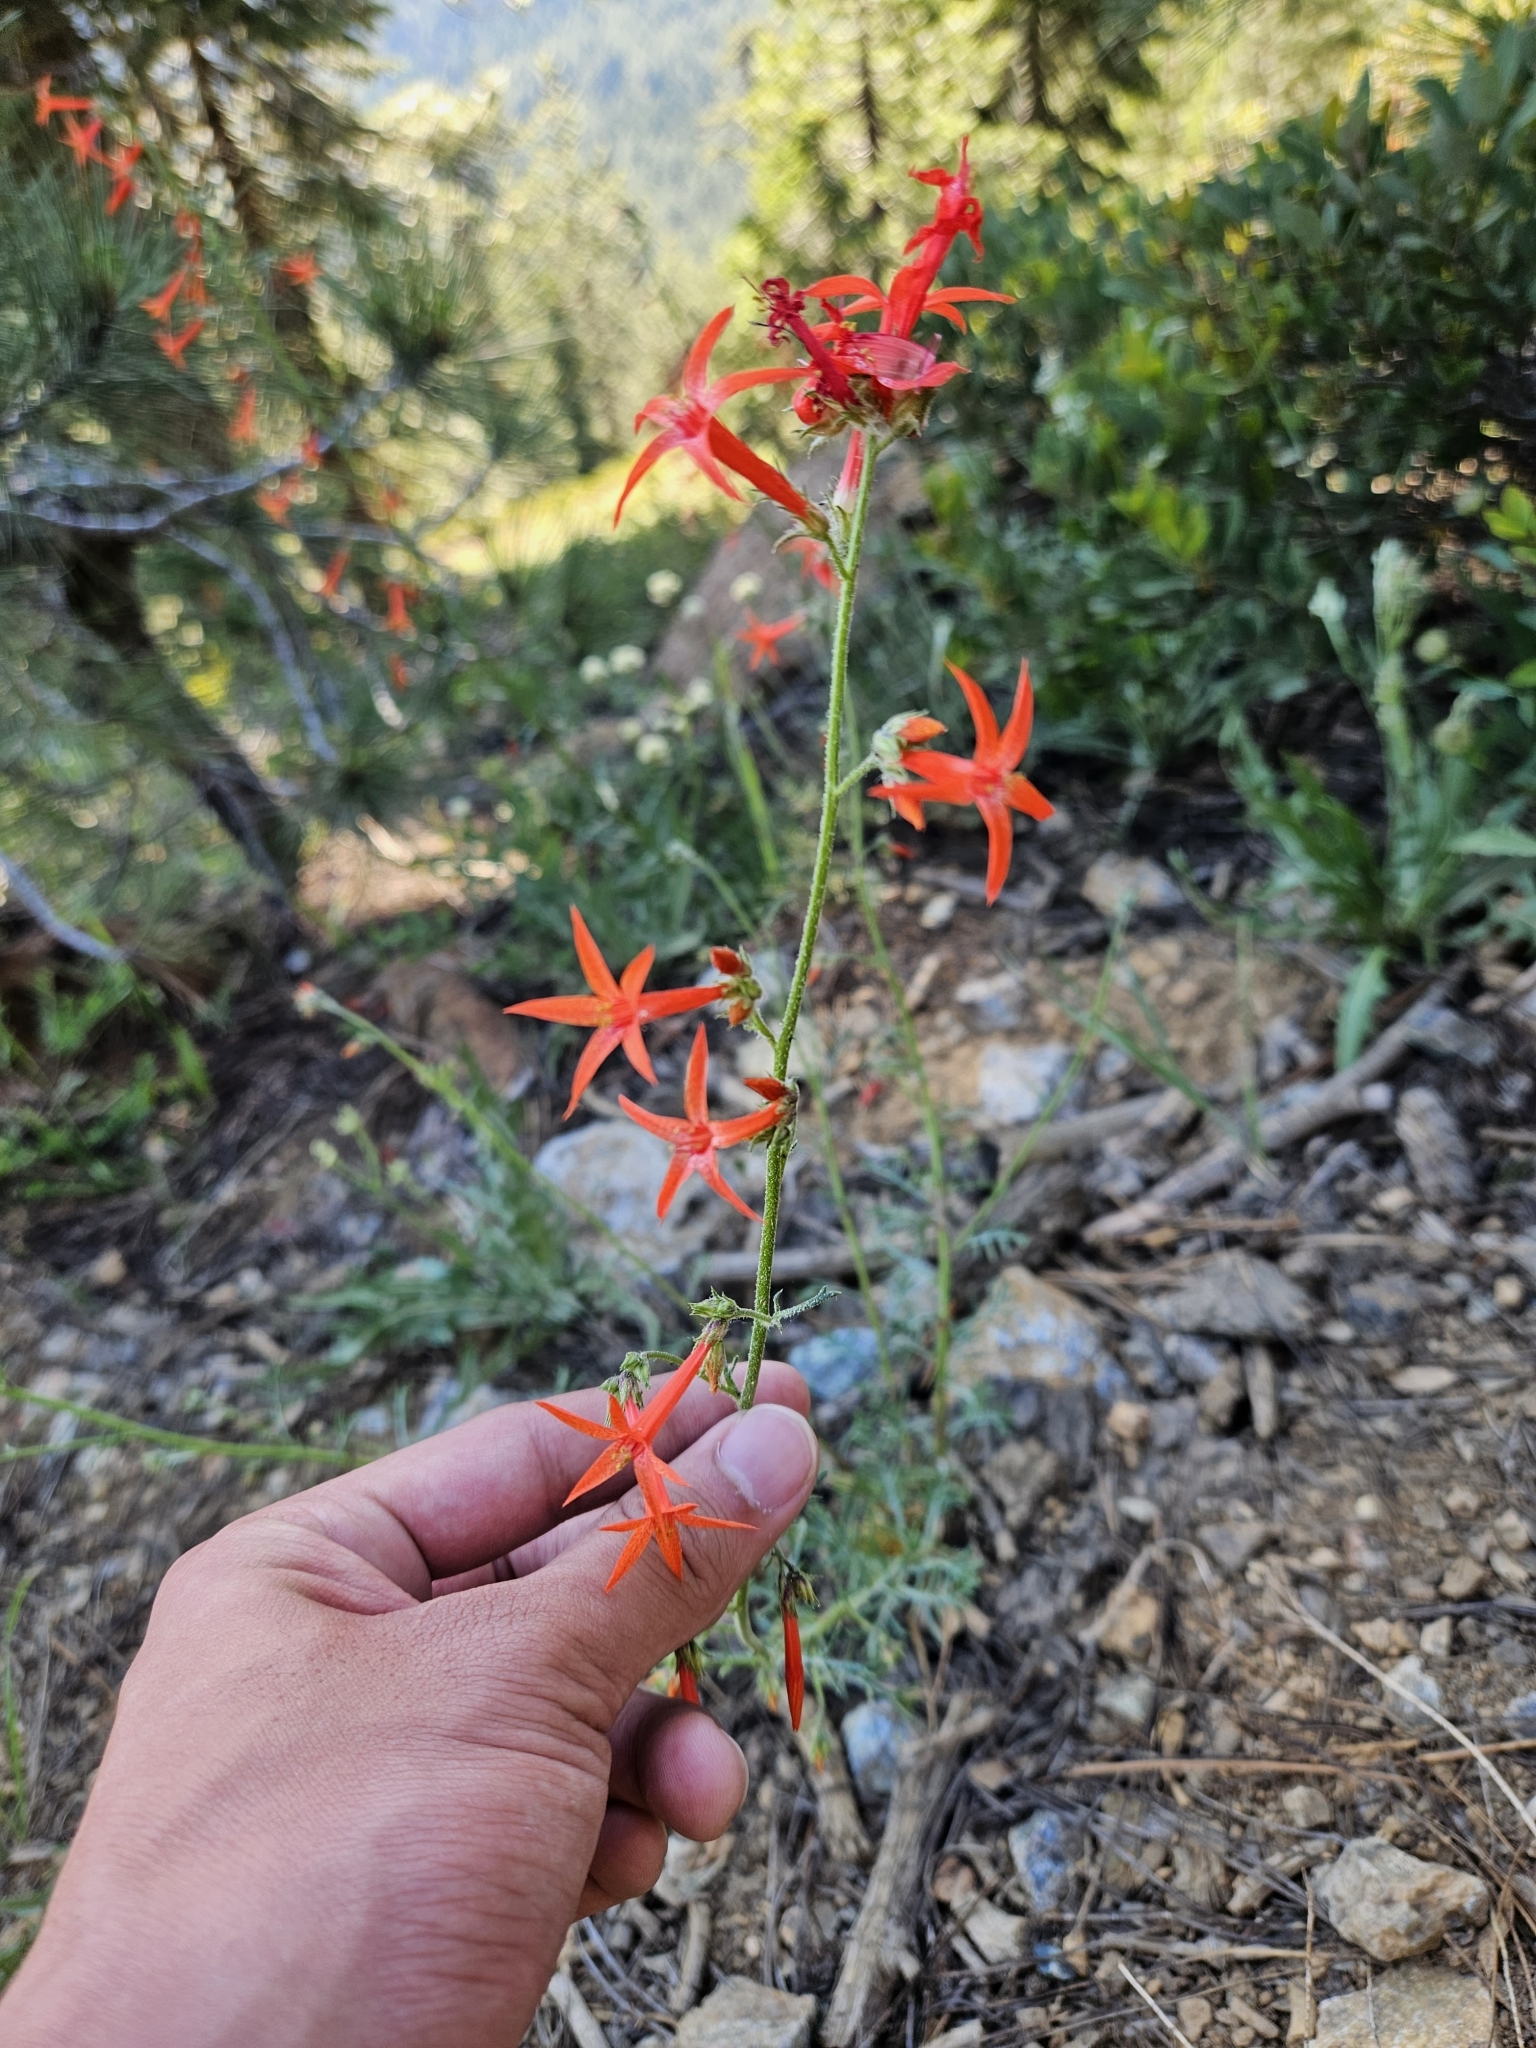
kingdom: Plantae
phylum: Tracheophyta
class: Magnoliopsida
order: Ericales
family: Polemoniaceae
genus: Ipomopsis
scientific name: Ipomopsis aggregata
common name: Scarlet gilia
